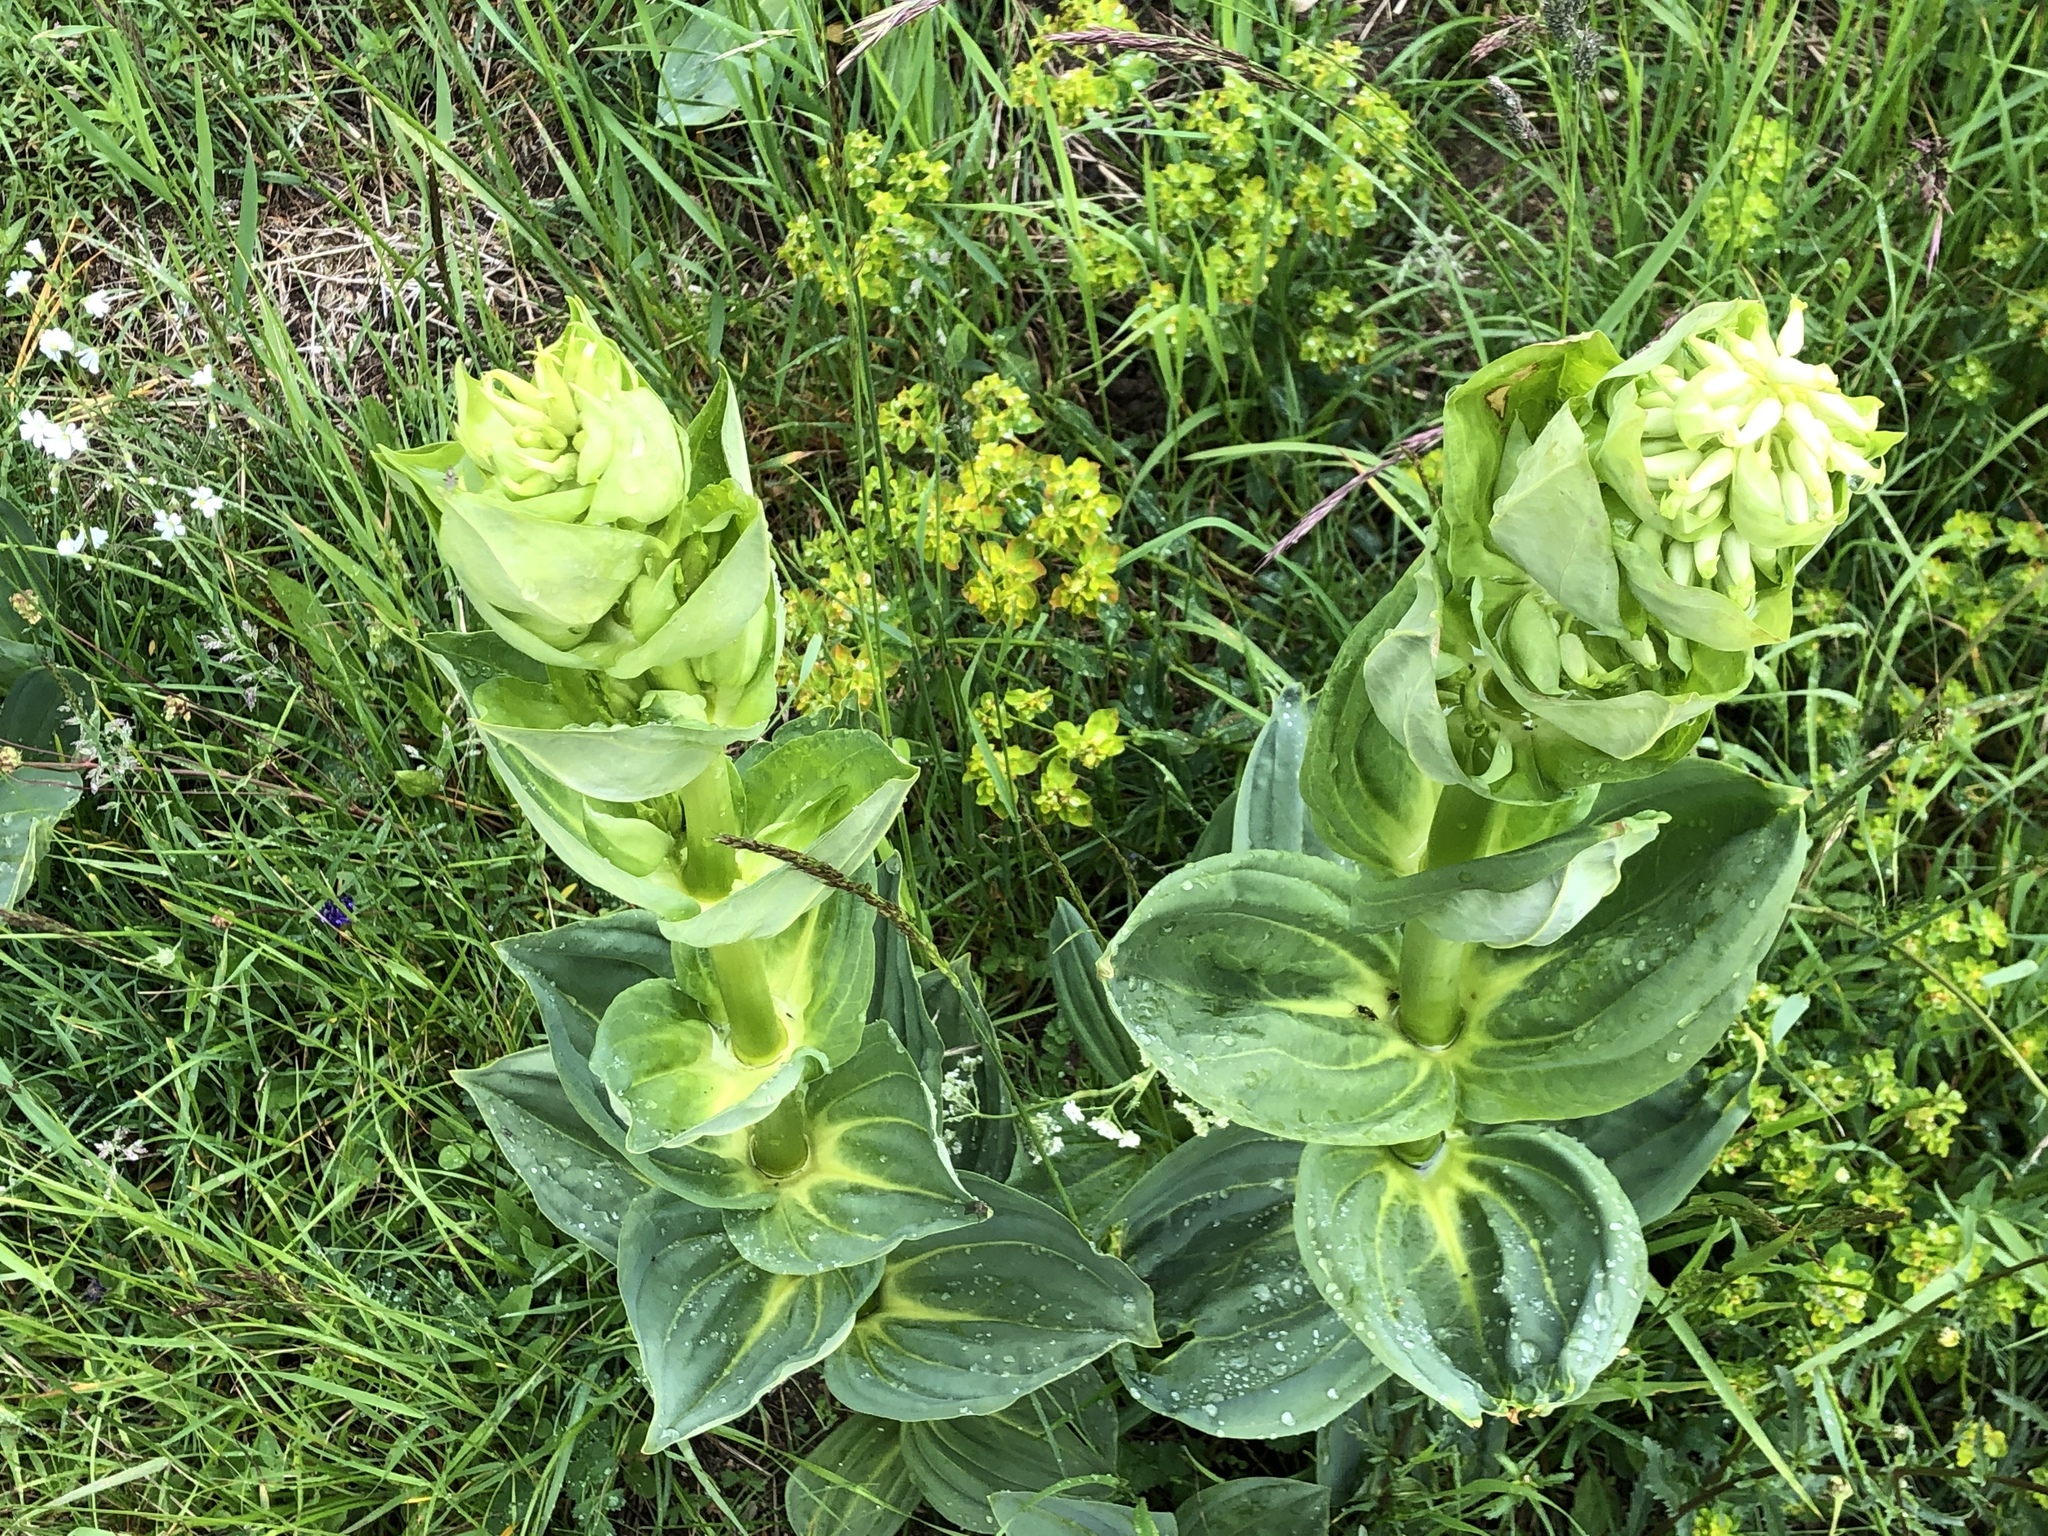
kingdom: Plantae
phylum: Tracheophyta
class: Magnoliopsida
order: Gentianales
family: Gentianaceae
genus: Gentiana
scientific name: Gentiana lutea
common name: Great yellow gentian
